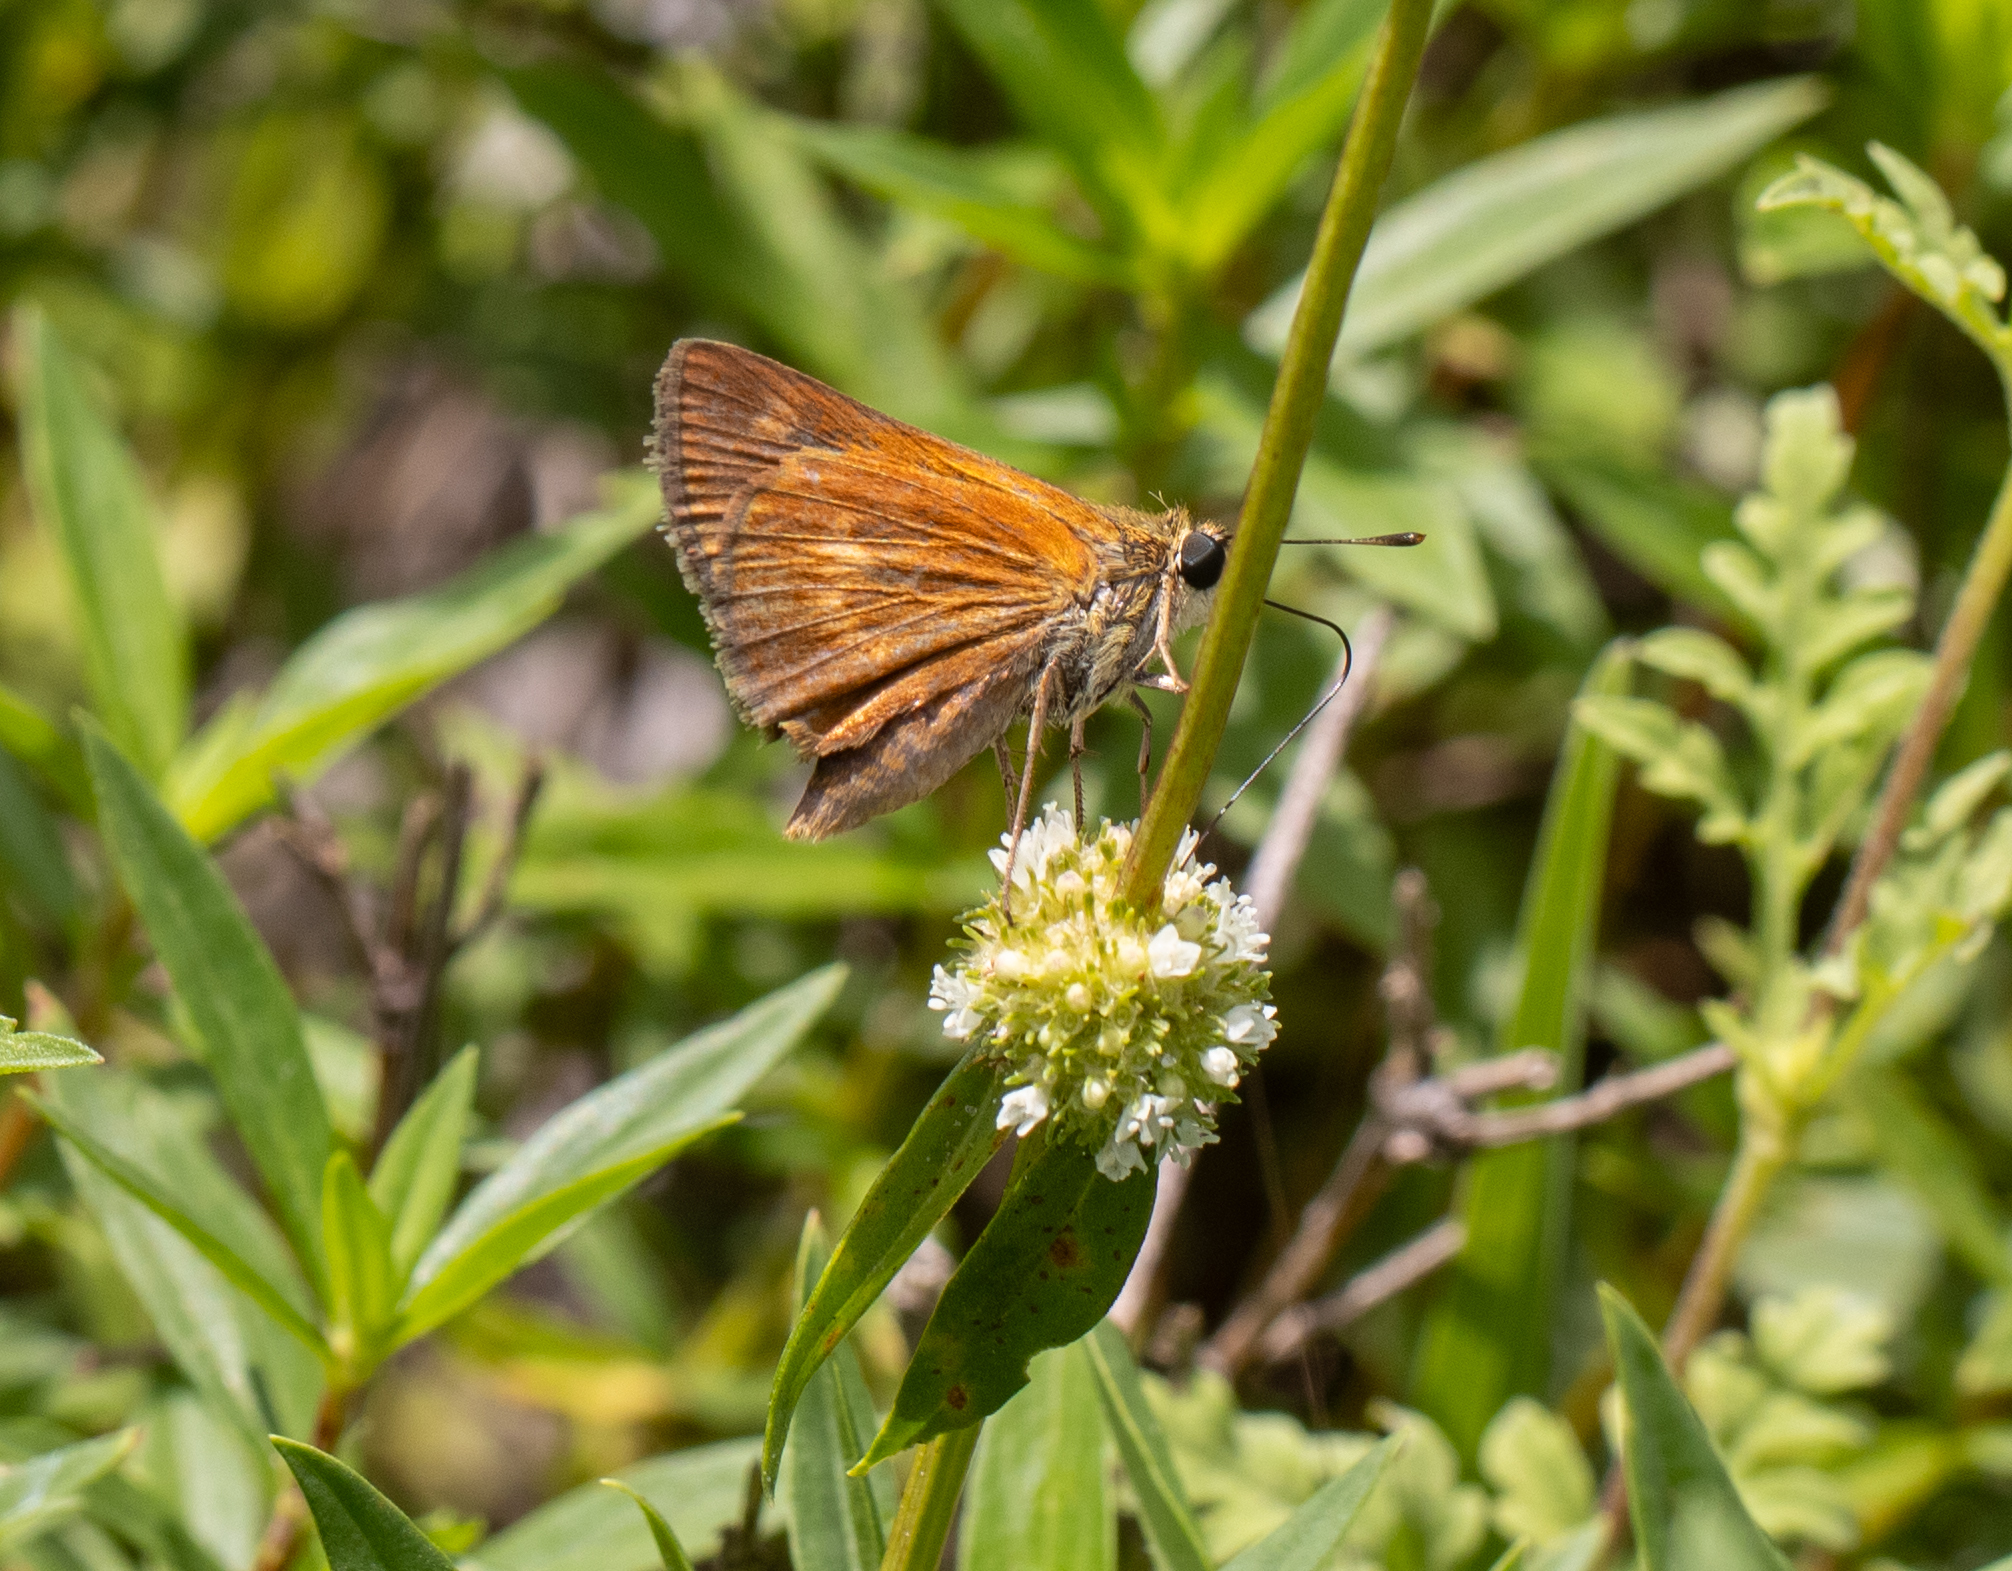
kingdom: Animalia
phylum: Arthropoda
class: Insecta
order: Lepidoptera
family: Hesperiidae
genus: Polites
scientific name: Polites otho
